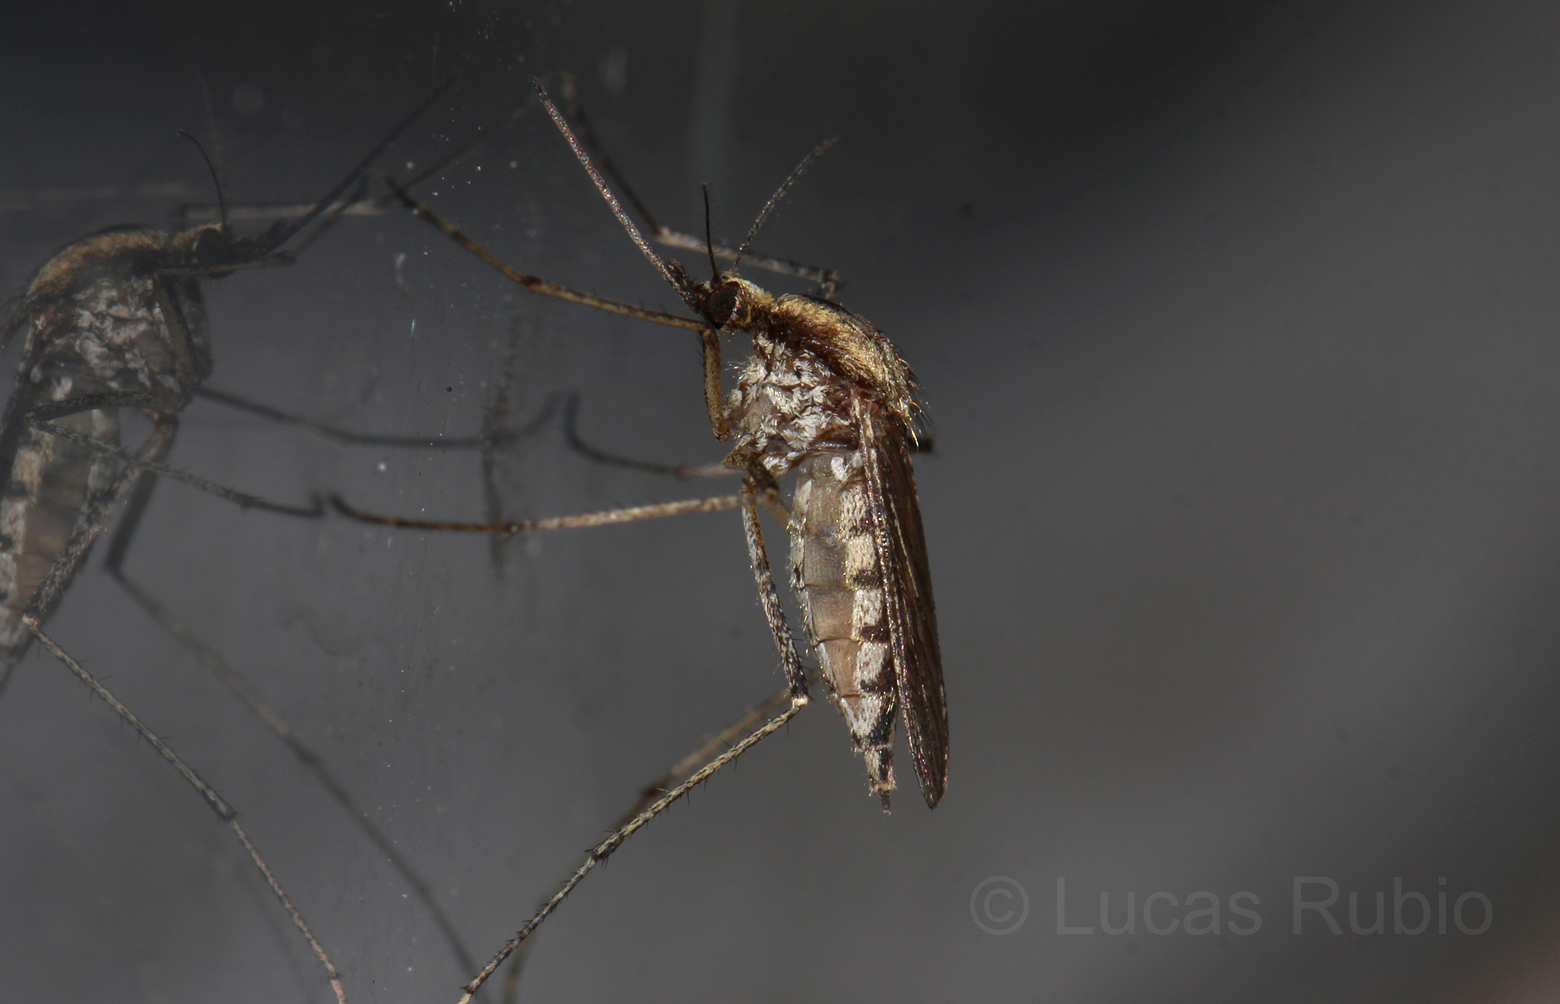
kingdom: Animalia
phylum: Arthropoda
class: Insecta
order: Diptera
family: Culicidae
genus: Aedes
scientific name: Aedes albifasciatus
